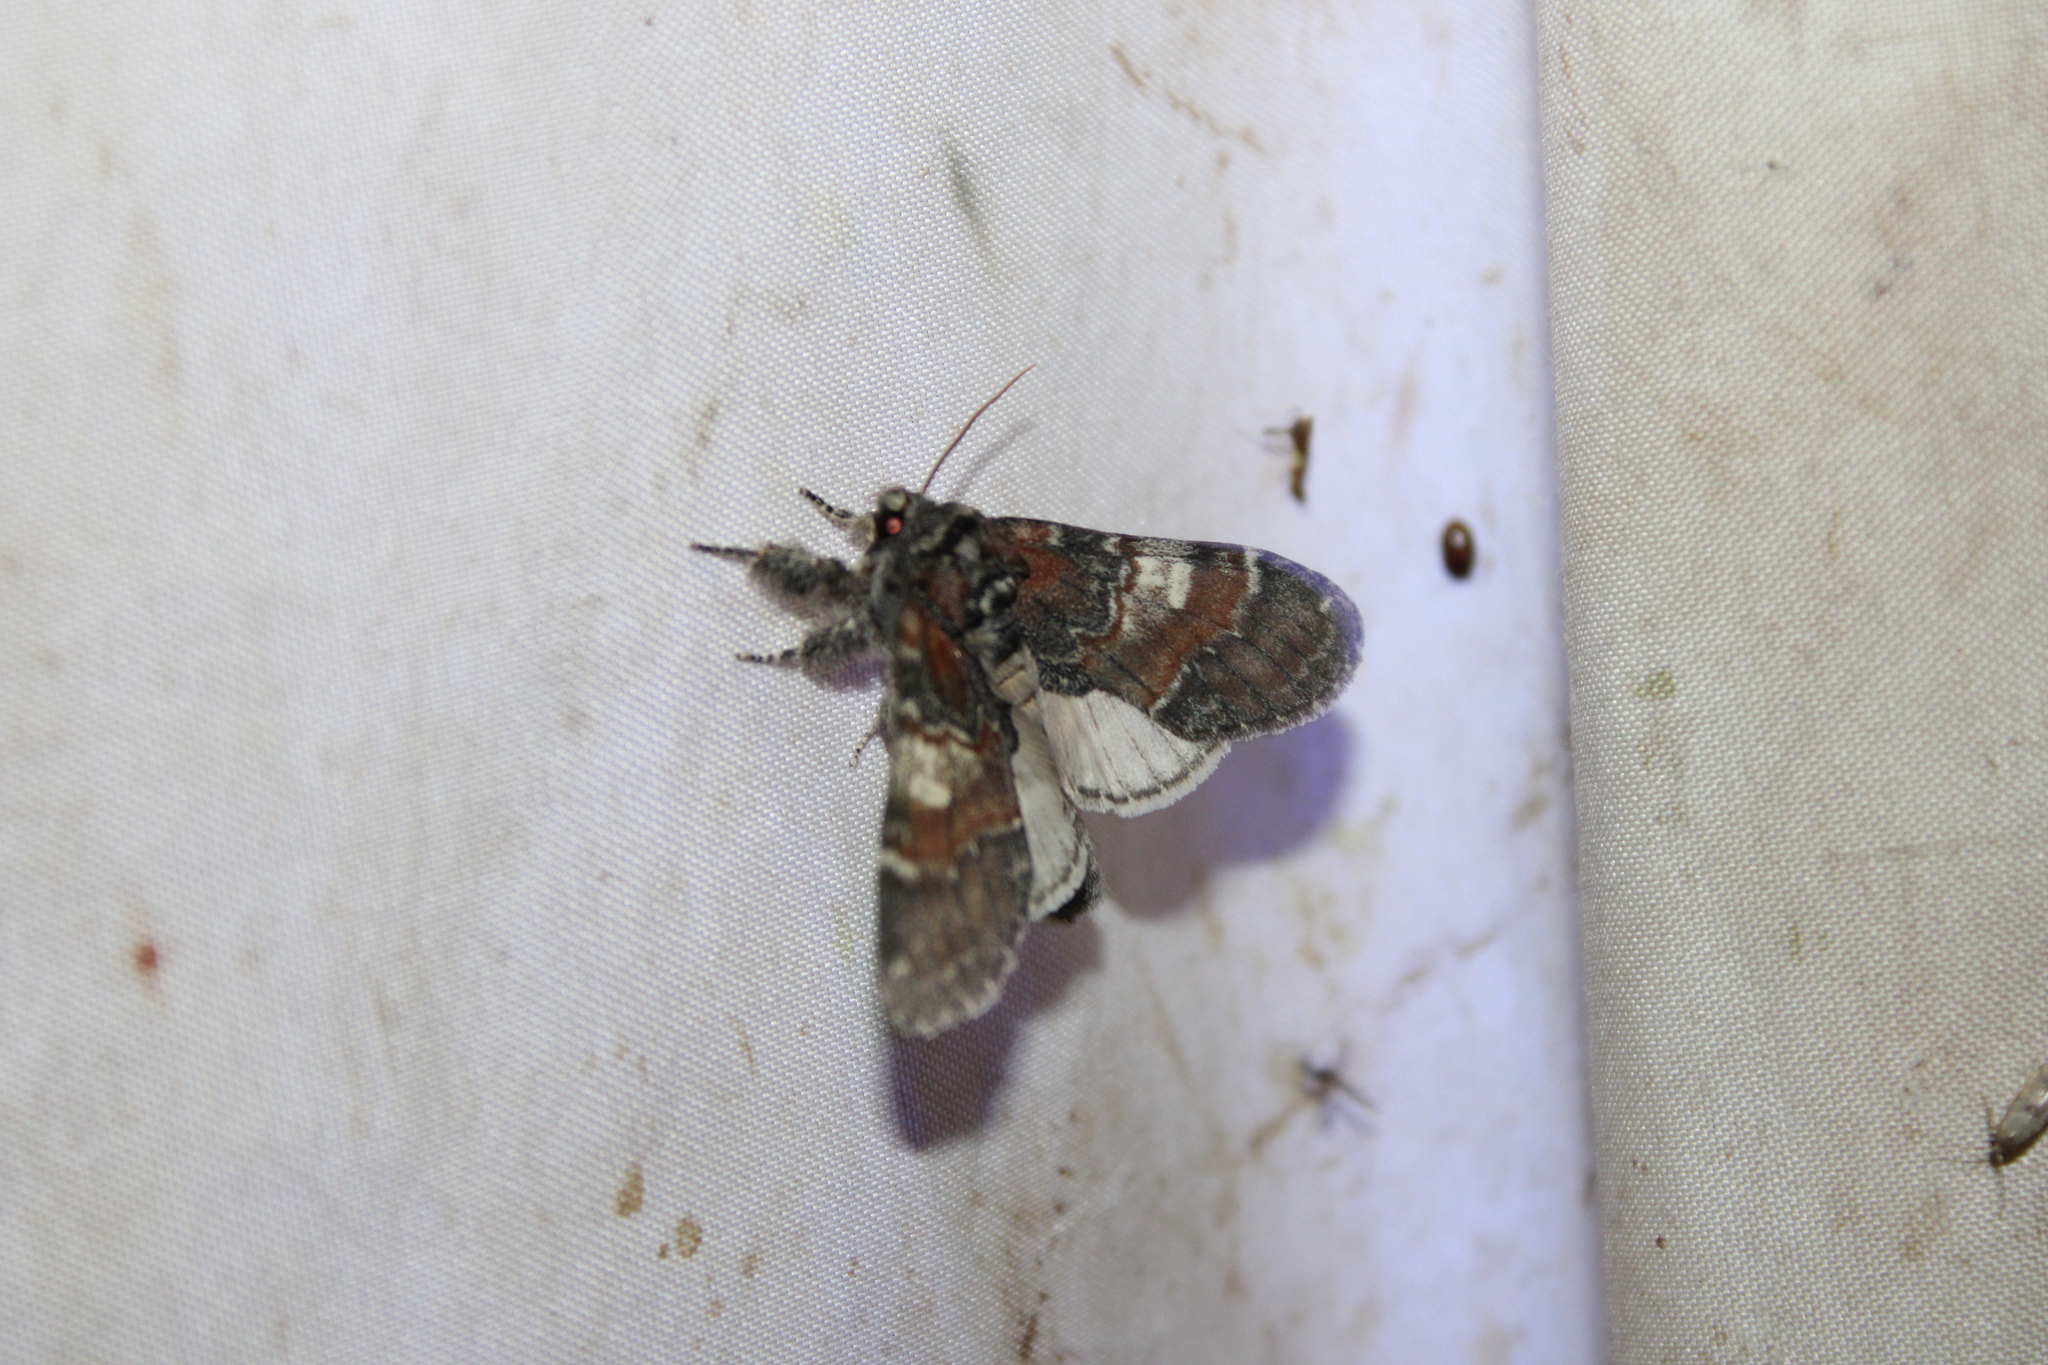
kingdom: Animalia
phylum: Arthropoda
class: Insecta
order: Lepidoptera
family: Notodontidae
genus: Peridea
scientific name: Peridea ferruginea
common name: Chocolate prominent
